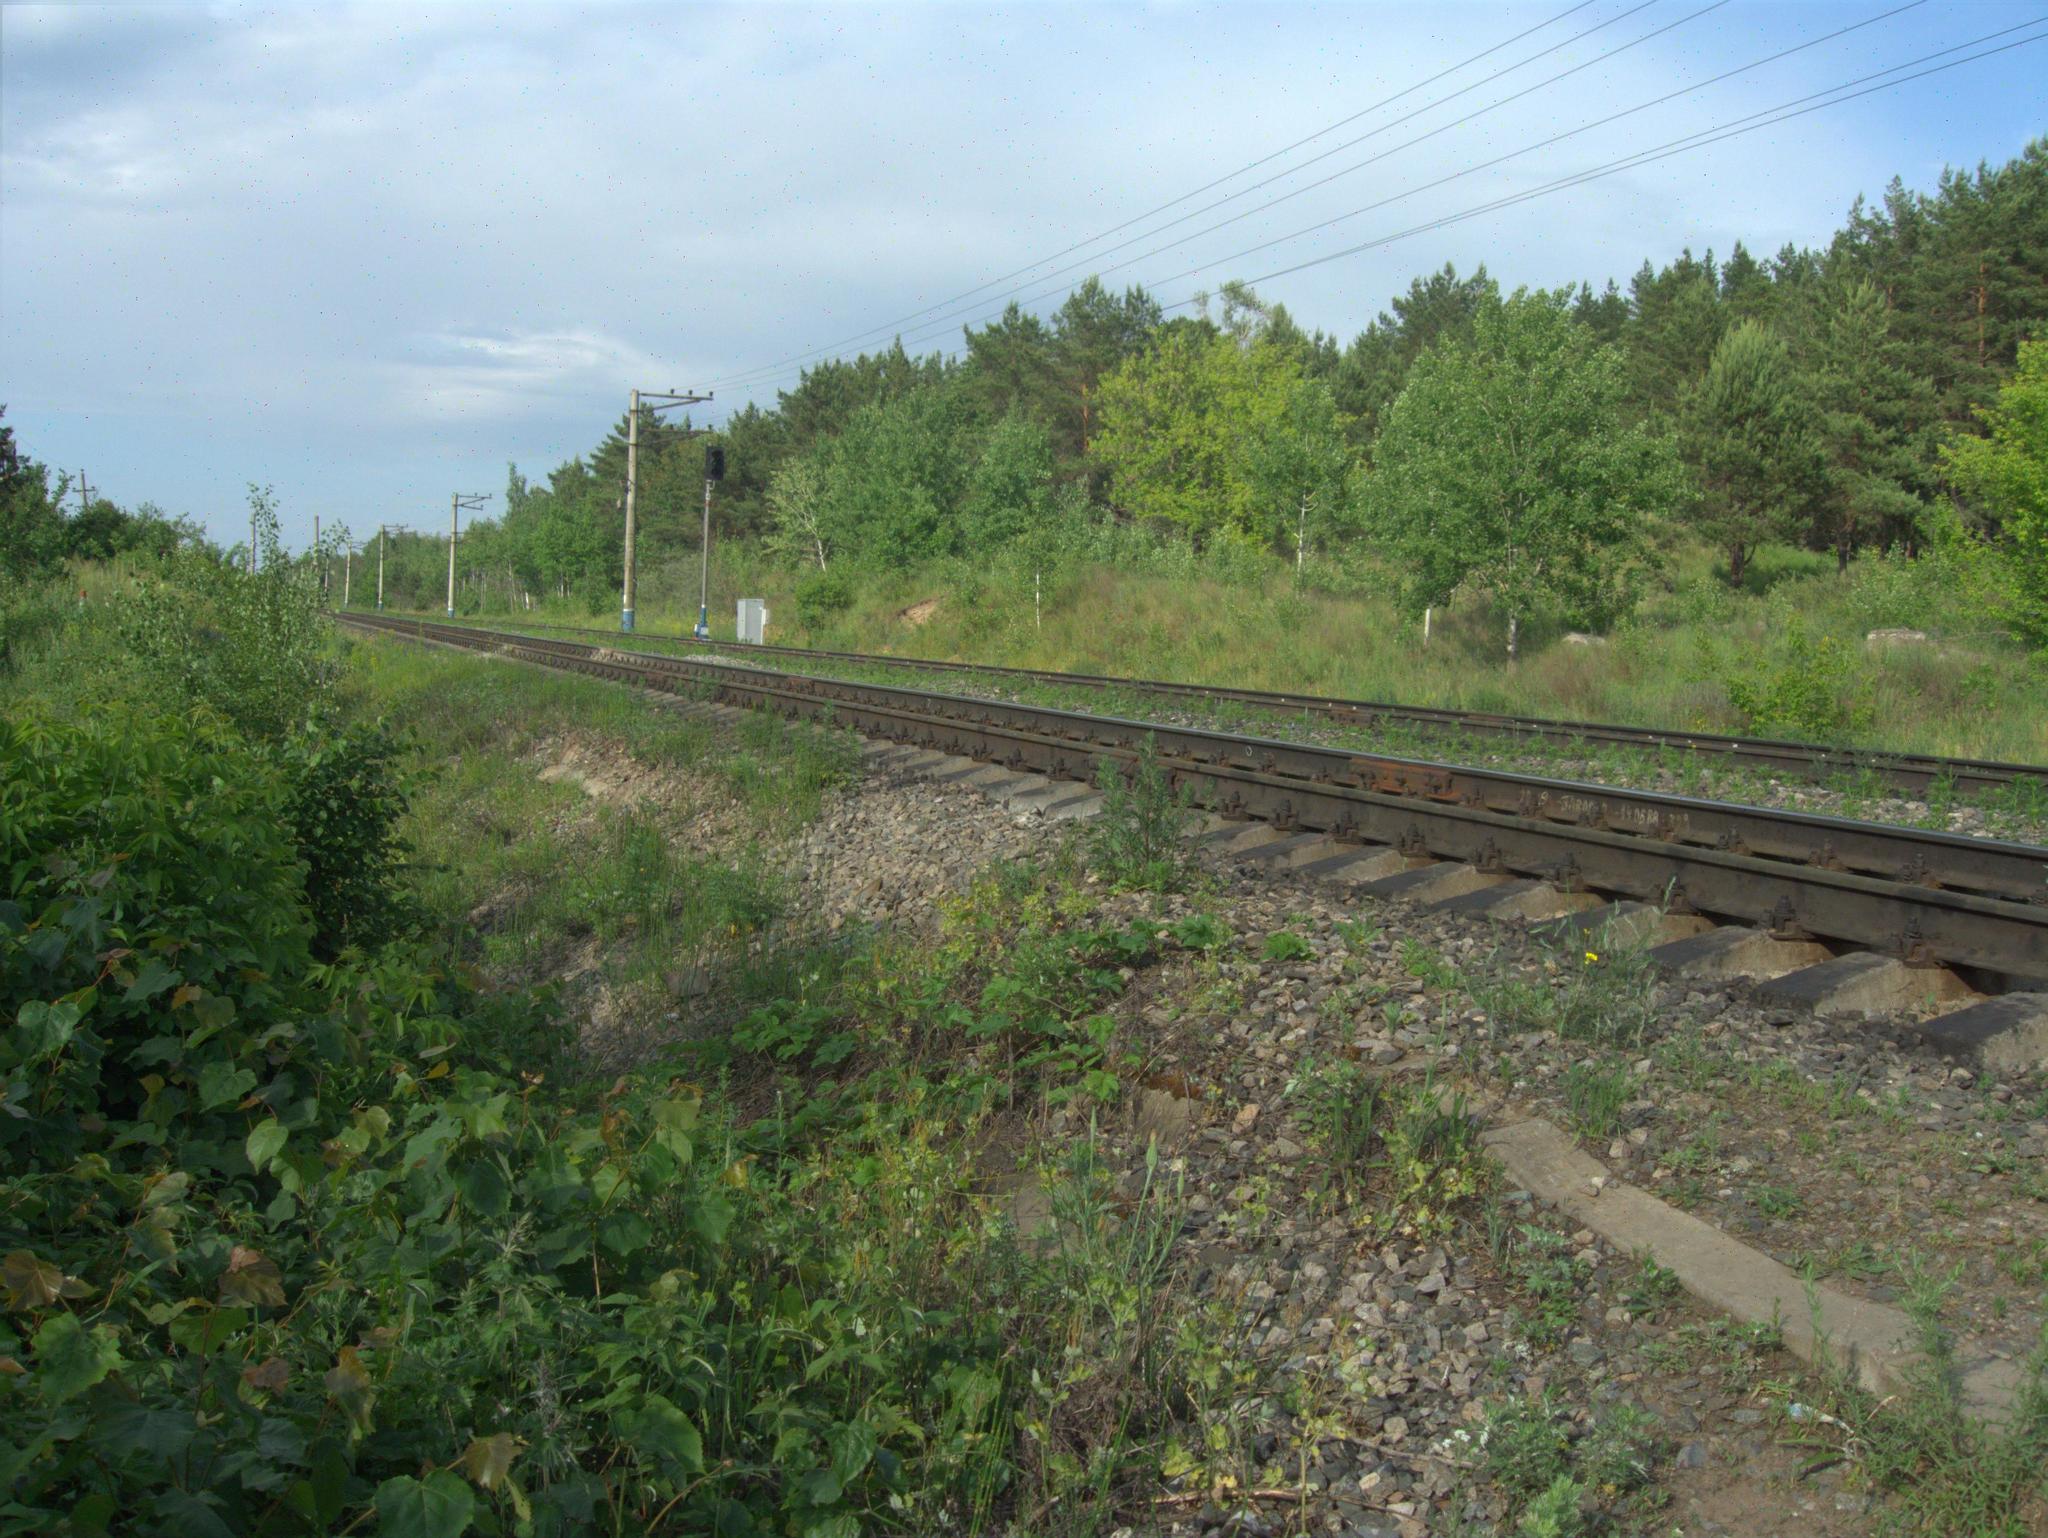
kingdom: Plantae
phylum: Tracheophyta
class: Magnoliopsida
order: Sapindales
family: Sapindaceae
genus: Acer
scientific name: Acer negundo
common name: Ashleaf maple
